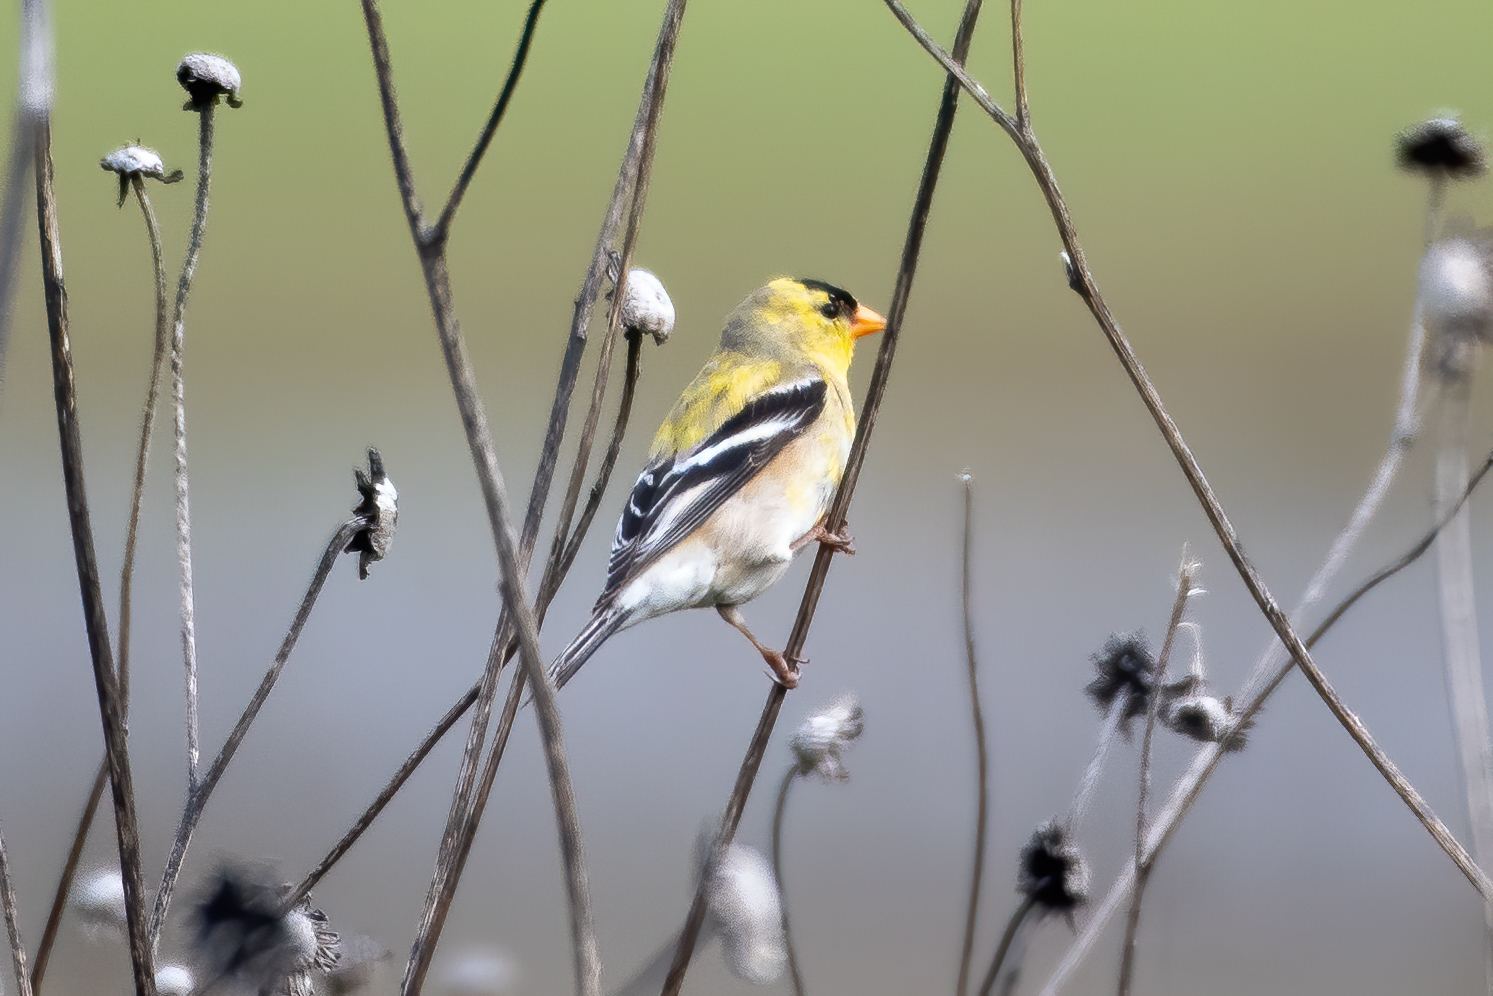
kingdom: Animalia
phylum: Chordata
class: Aves
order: Passeriformes
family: Fringillidae
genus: Spinus
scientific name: Spinus tristis
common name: American goldfinch
